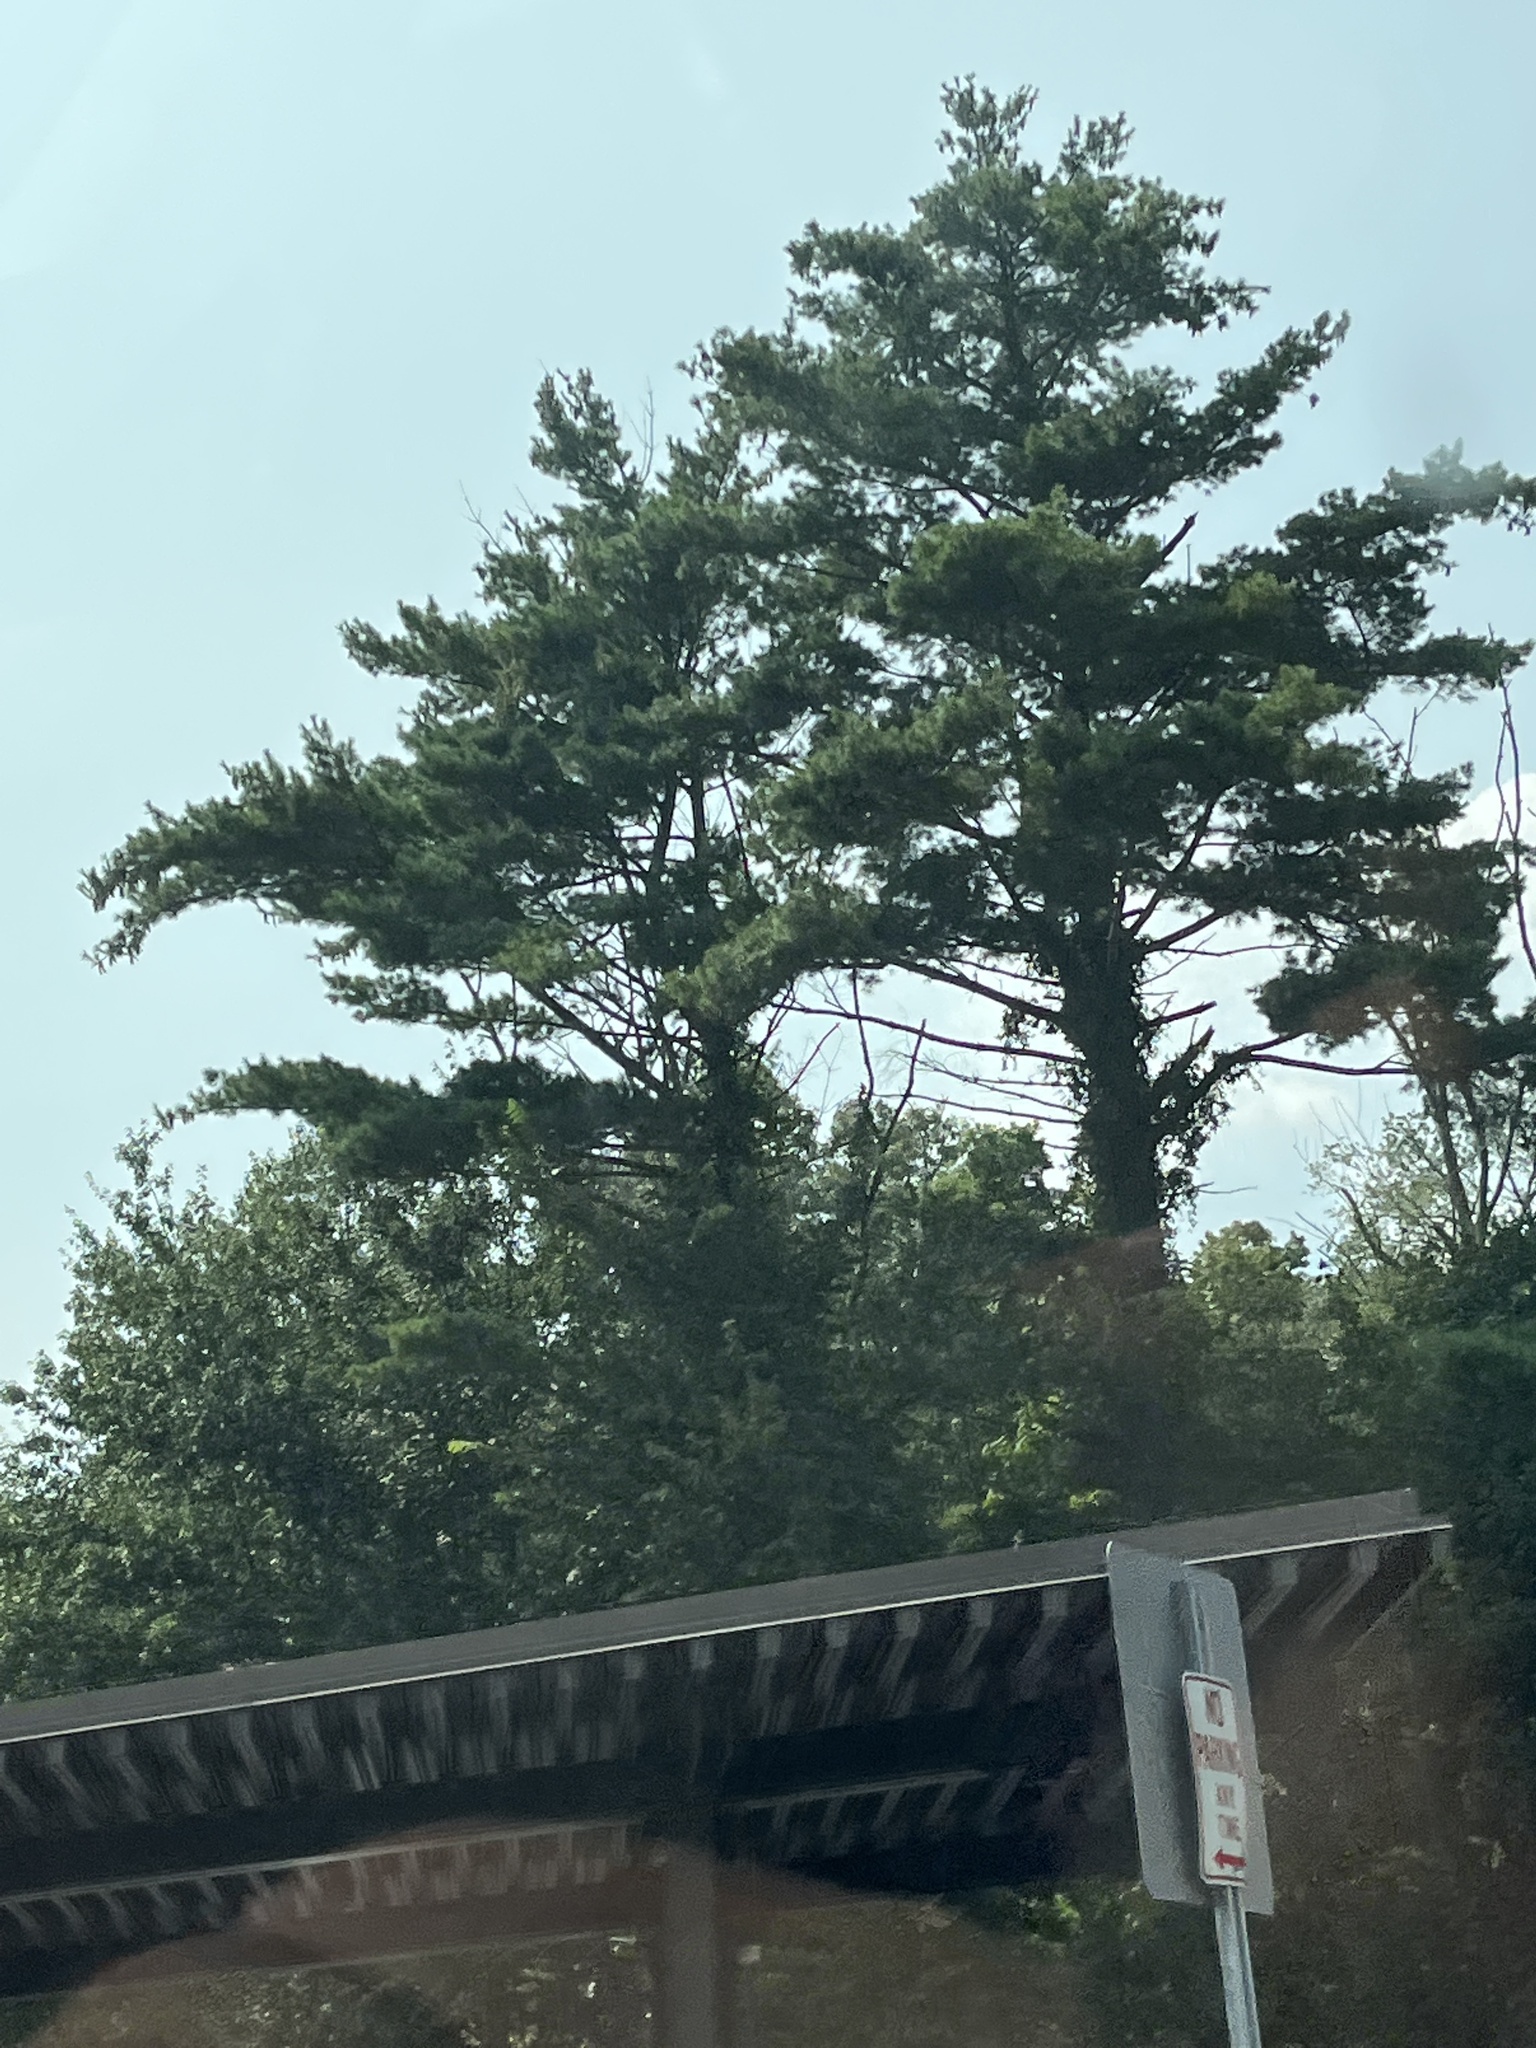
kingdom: Plantae
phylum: Tracheophyta
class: Pinopsida
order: Pinales
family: Pinaceae
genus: Pinus
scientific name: Pinus strobus
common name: Weymouth pine
